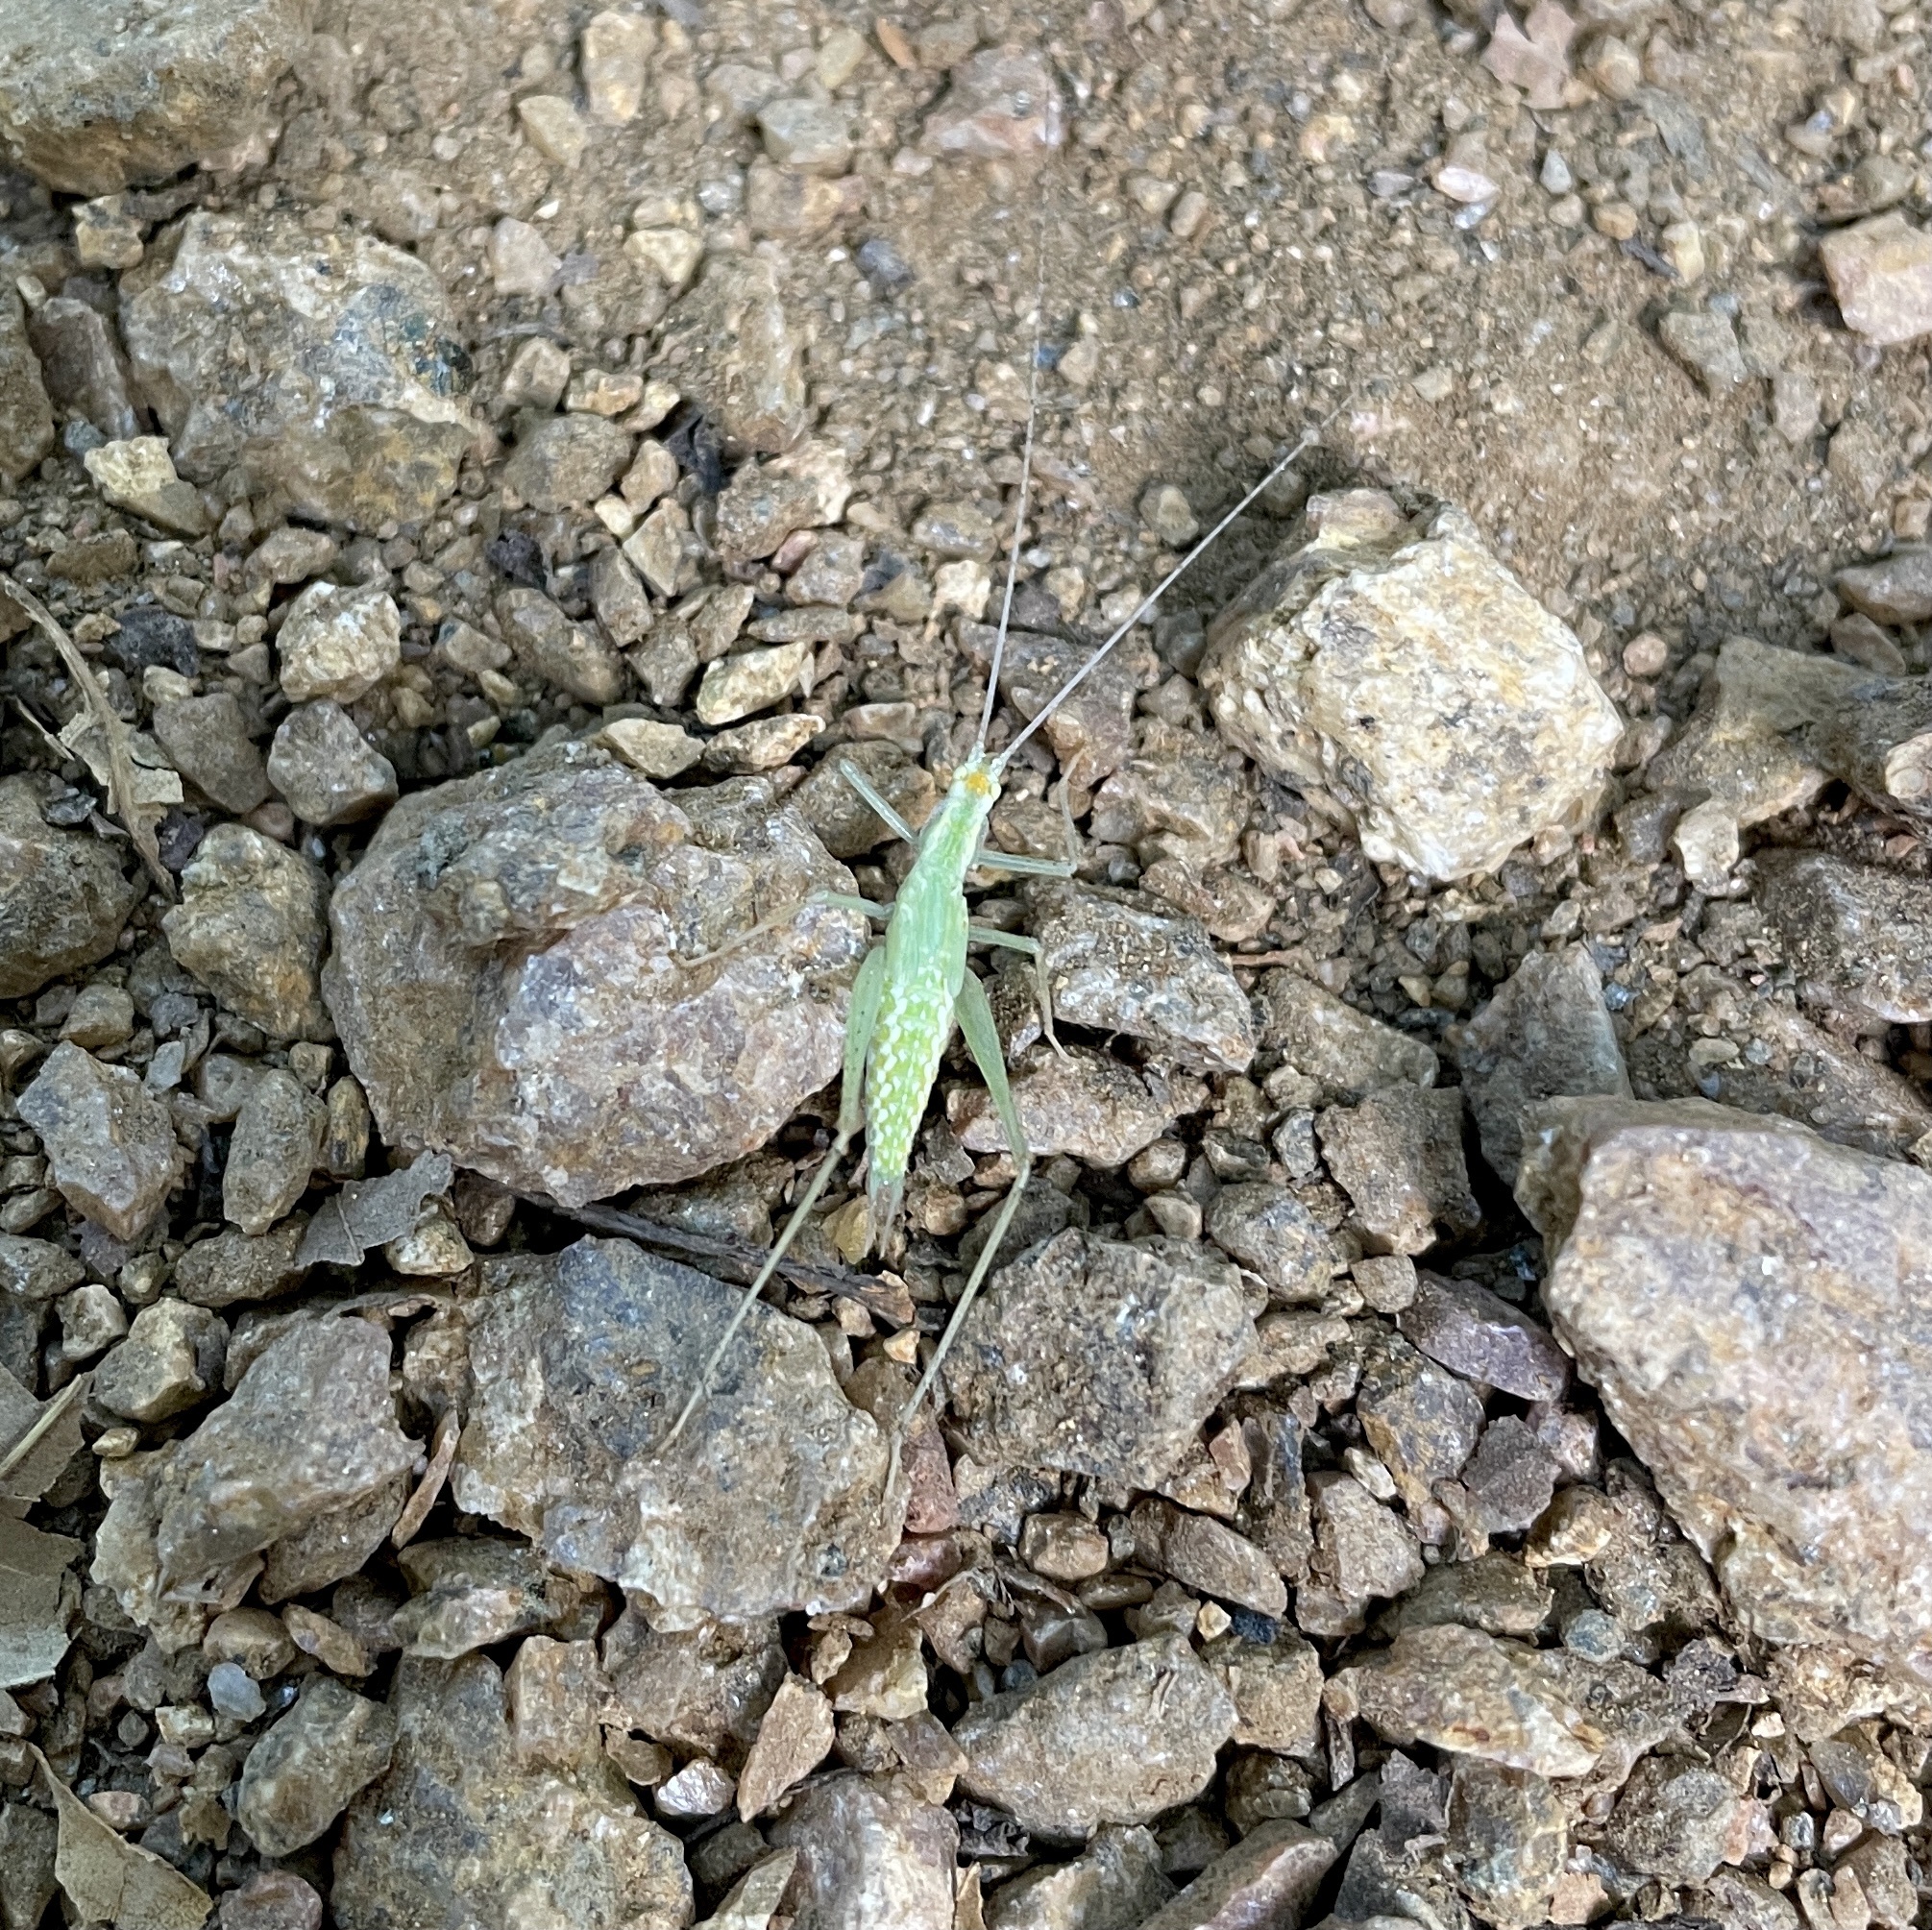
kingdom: Animalia
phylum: Arthropoda
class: Insecta
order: Orthoptera
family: Gryllidae
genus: Oecanthus
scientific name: Oecanthus niveus
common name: Narrow-winged tree cricket
